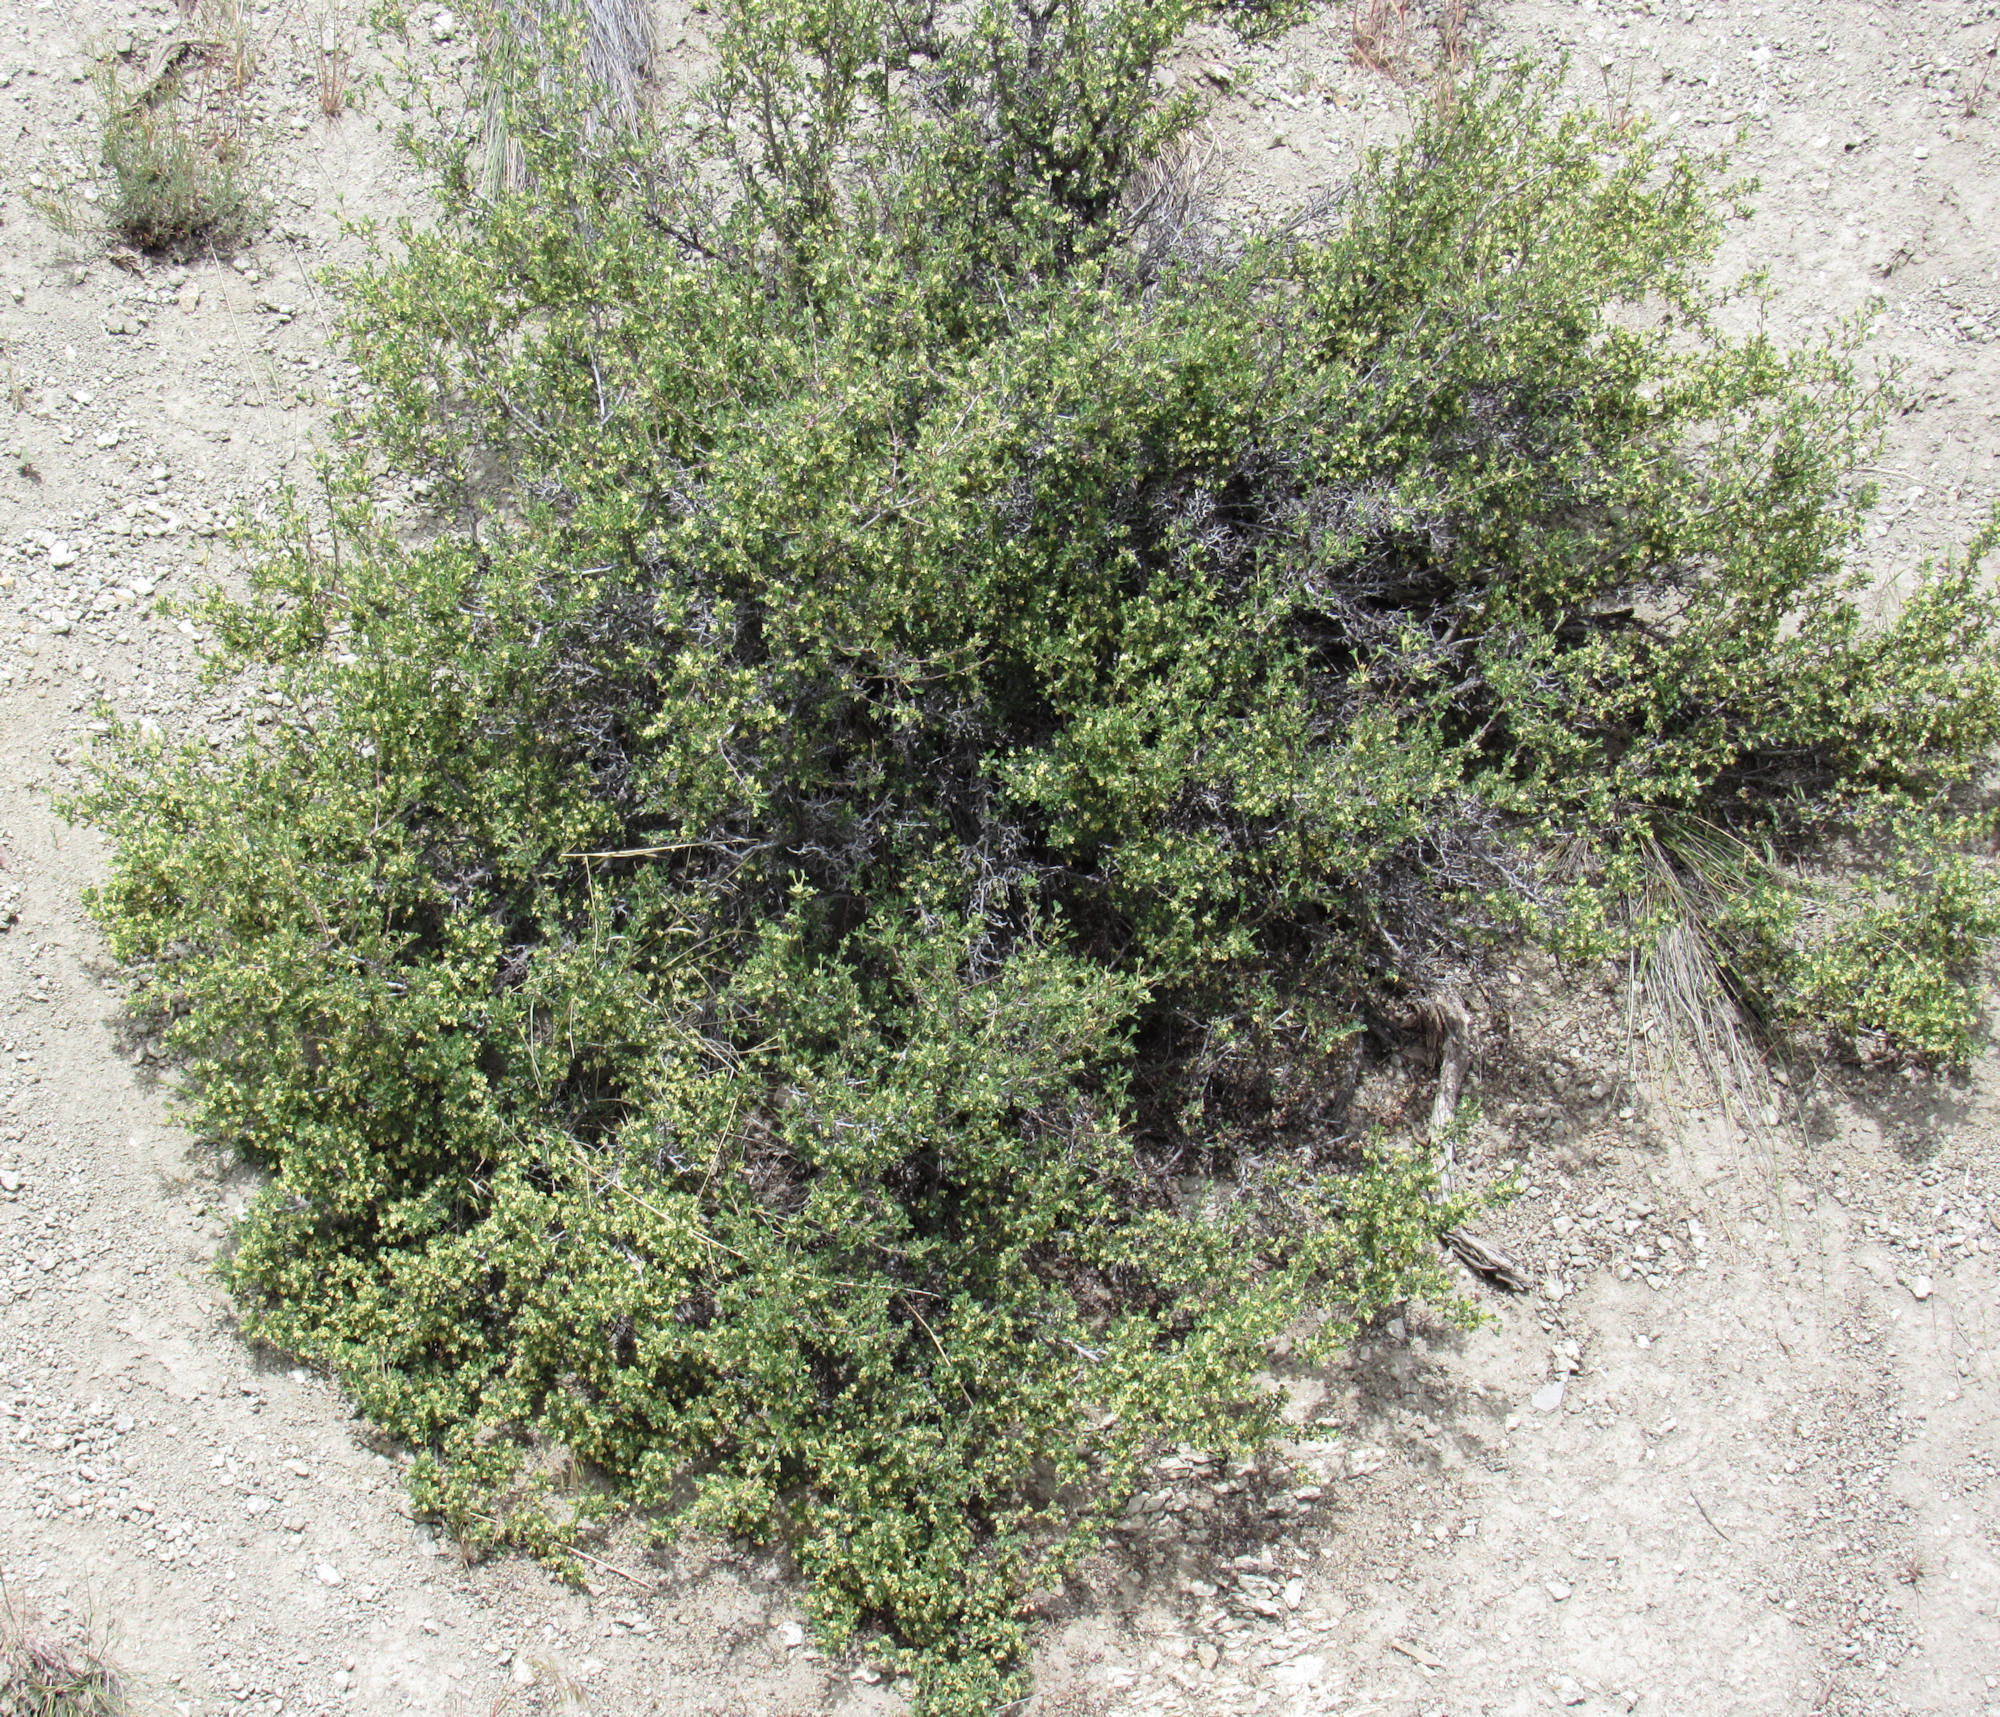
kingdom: Plantae
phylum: Tracheophyta
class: Magnoliopsida
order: Rosales
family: Rosaceae
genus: Purshia
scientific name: Purshia tridentata
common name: Antelope bitterbrush
